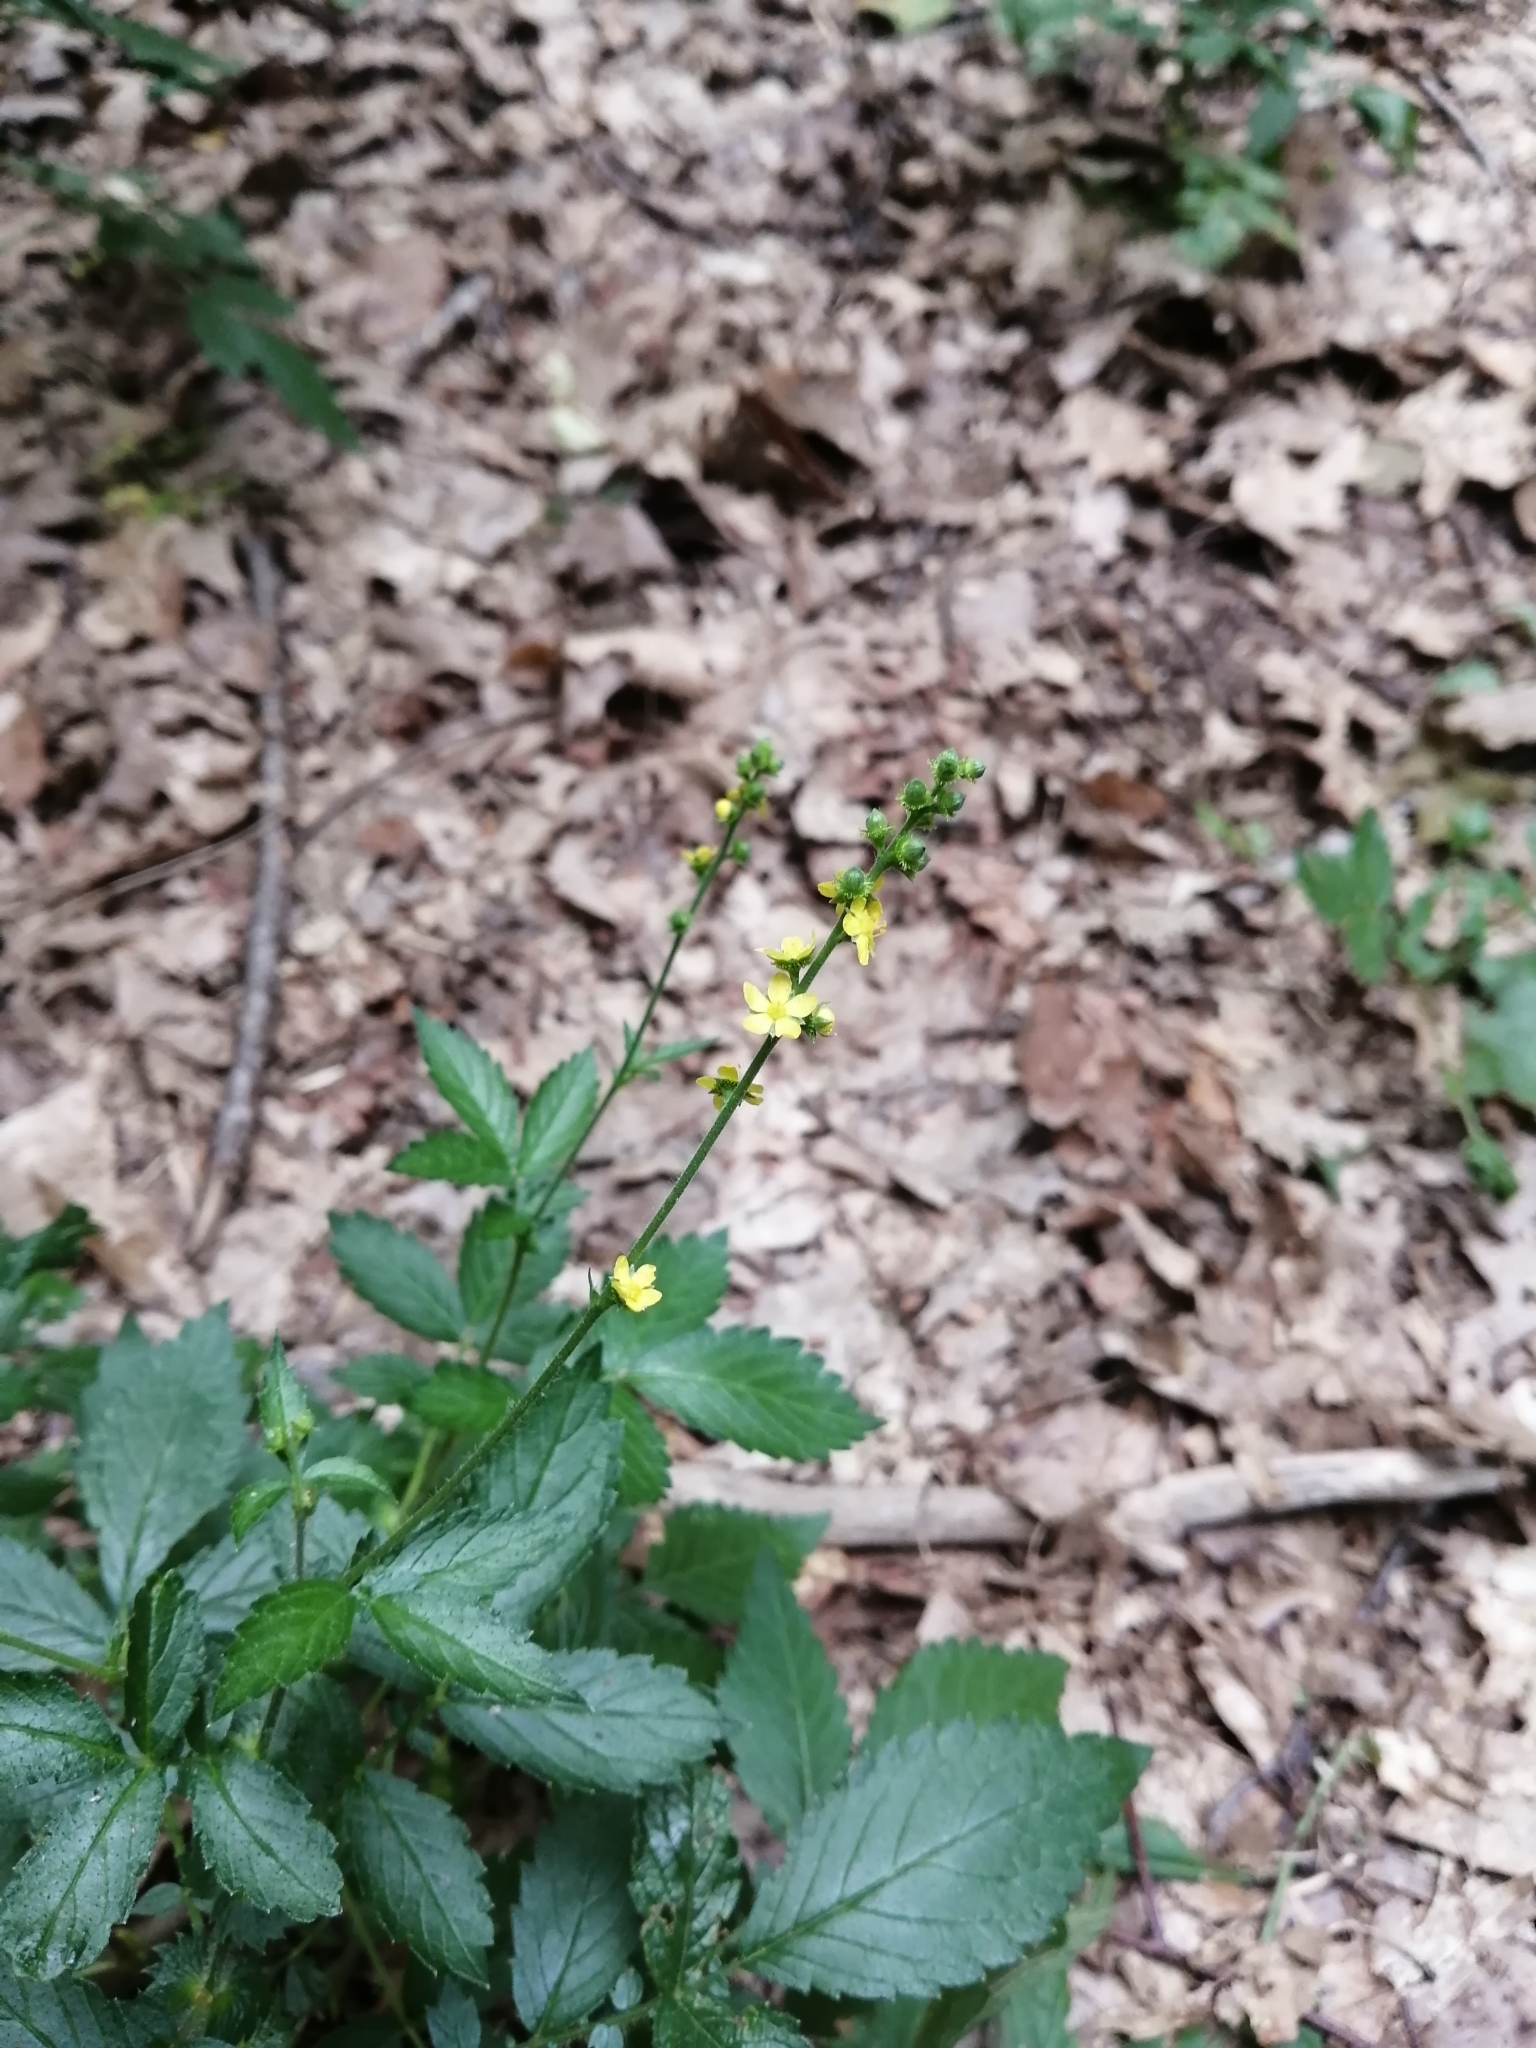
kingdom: Plantae
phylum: Tracheophyta
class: Magnoliopsida
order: Rosales
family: Rosaceae
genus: Agrimonia
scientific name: Agrimonia gryposepala
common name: Common agrimony
